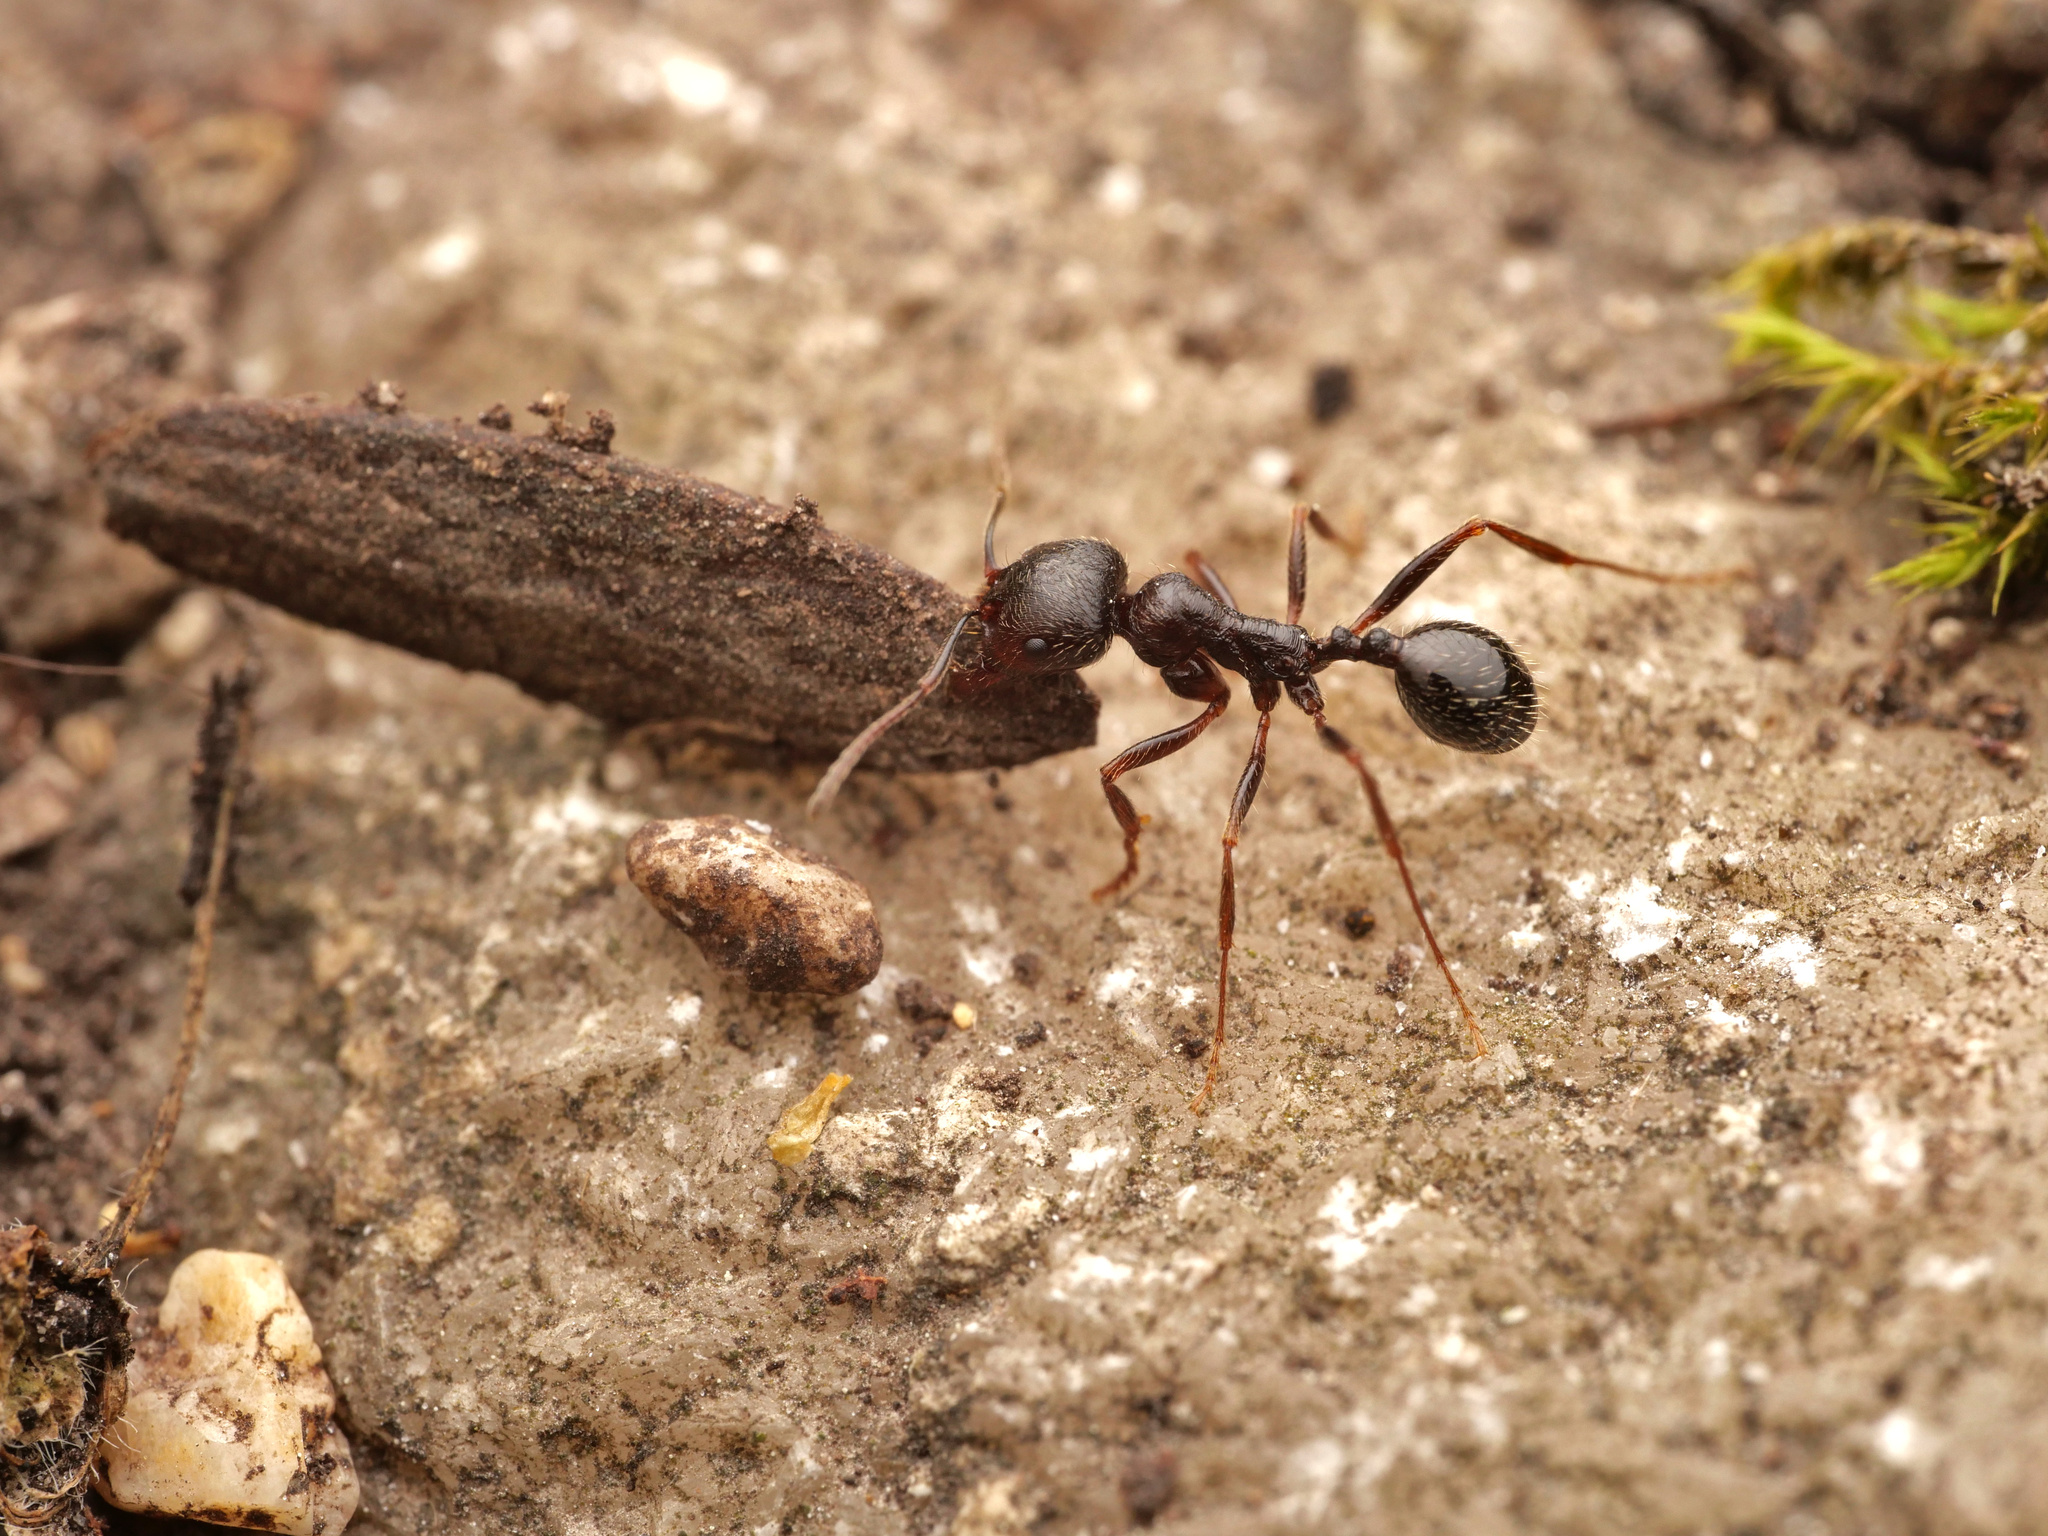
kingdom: Animalia
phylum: Arthropoda
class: Insecta
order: Hymenoptera
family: Formicidae
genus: Messor
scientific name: Messor structor
